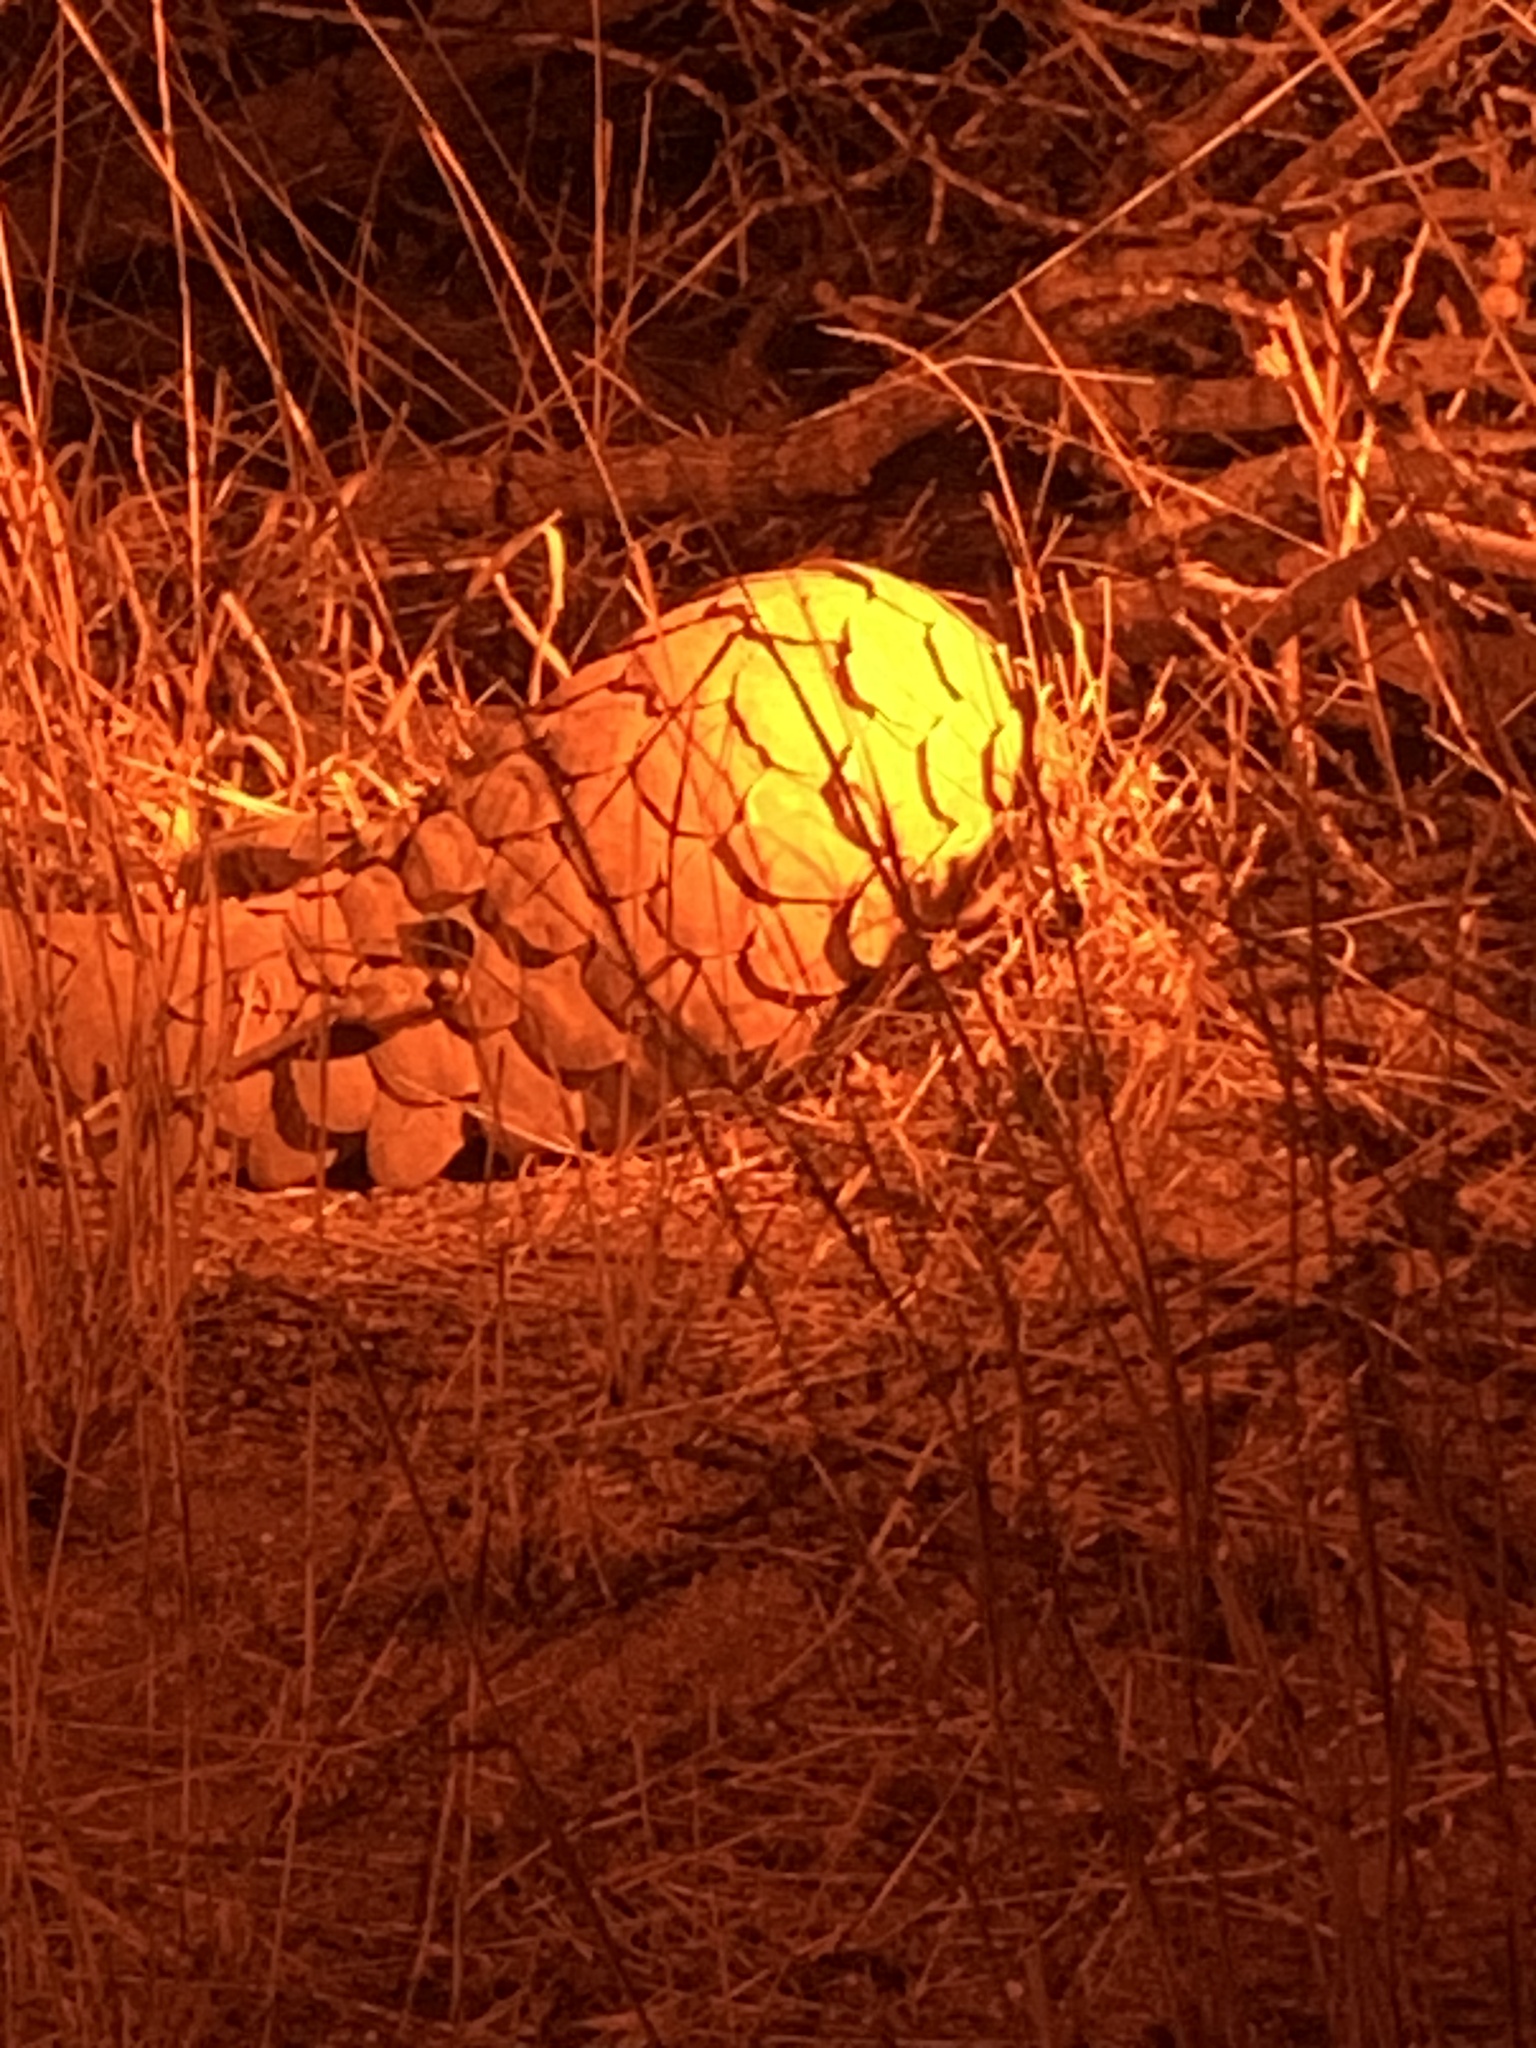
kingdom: Animalia
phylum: Chordata
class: Mammalia
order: Pholidota
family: Manidae
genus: Manis
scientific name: Manis temminckii
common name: Ground pangolin
